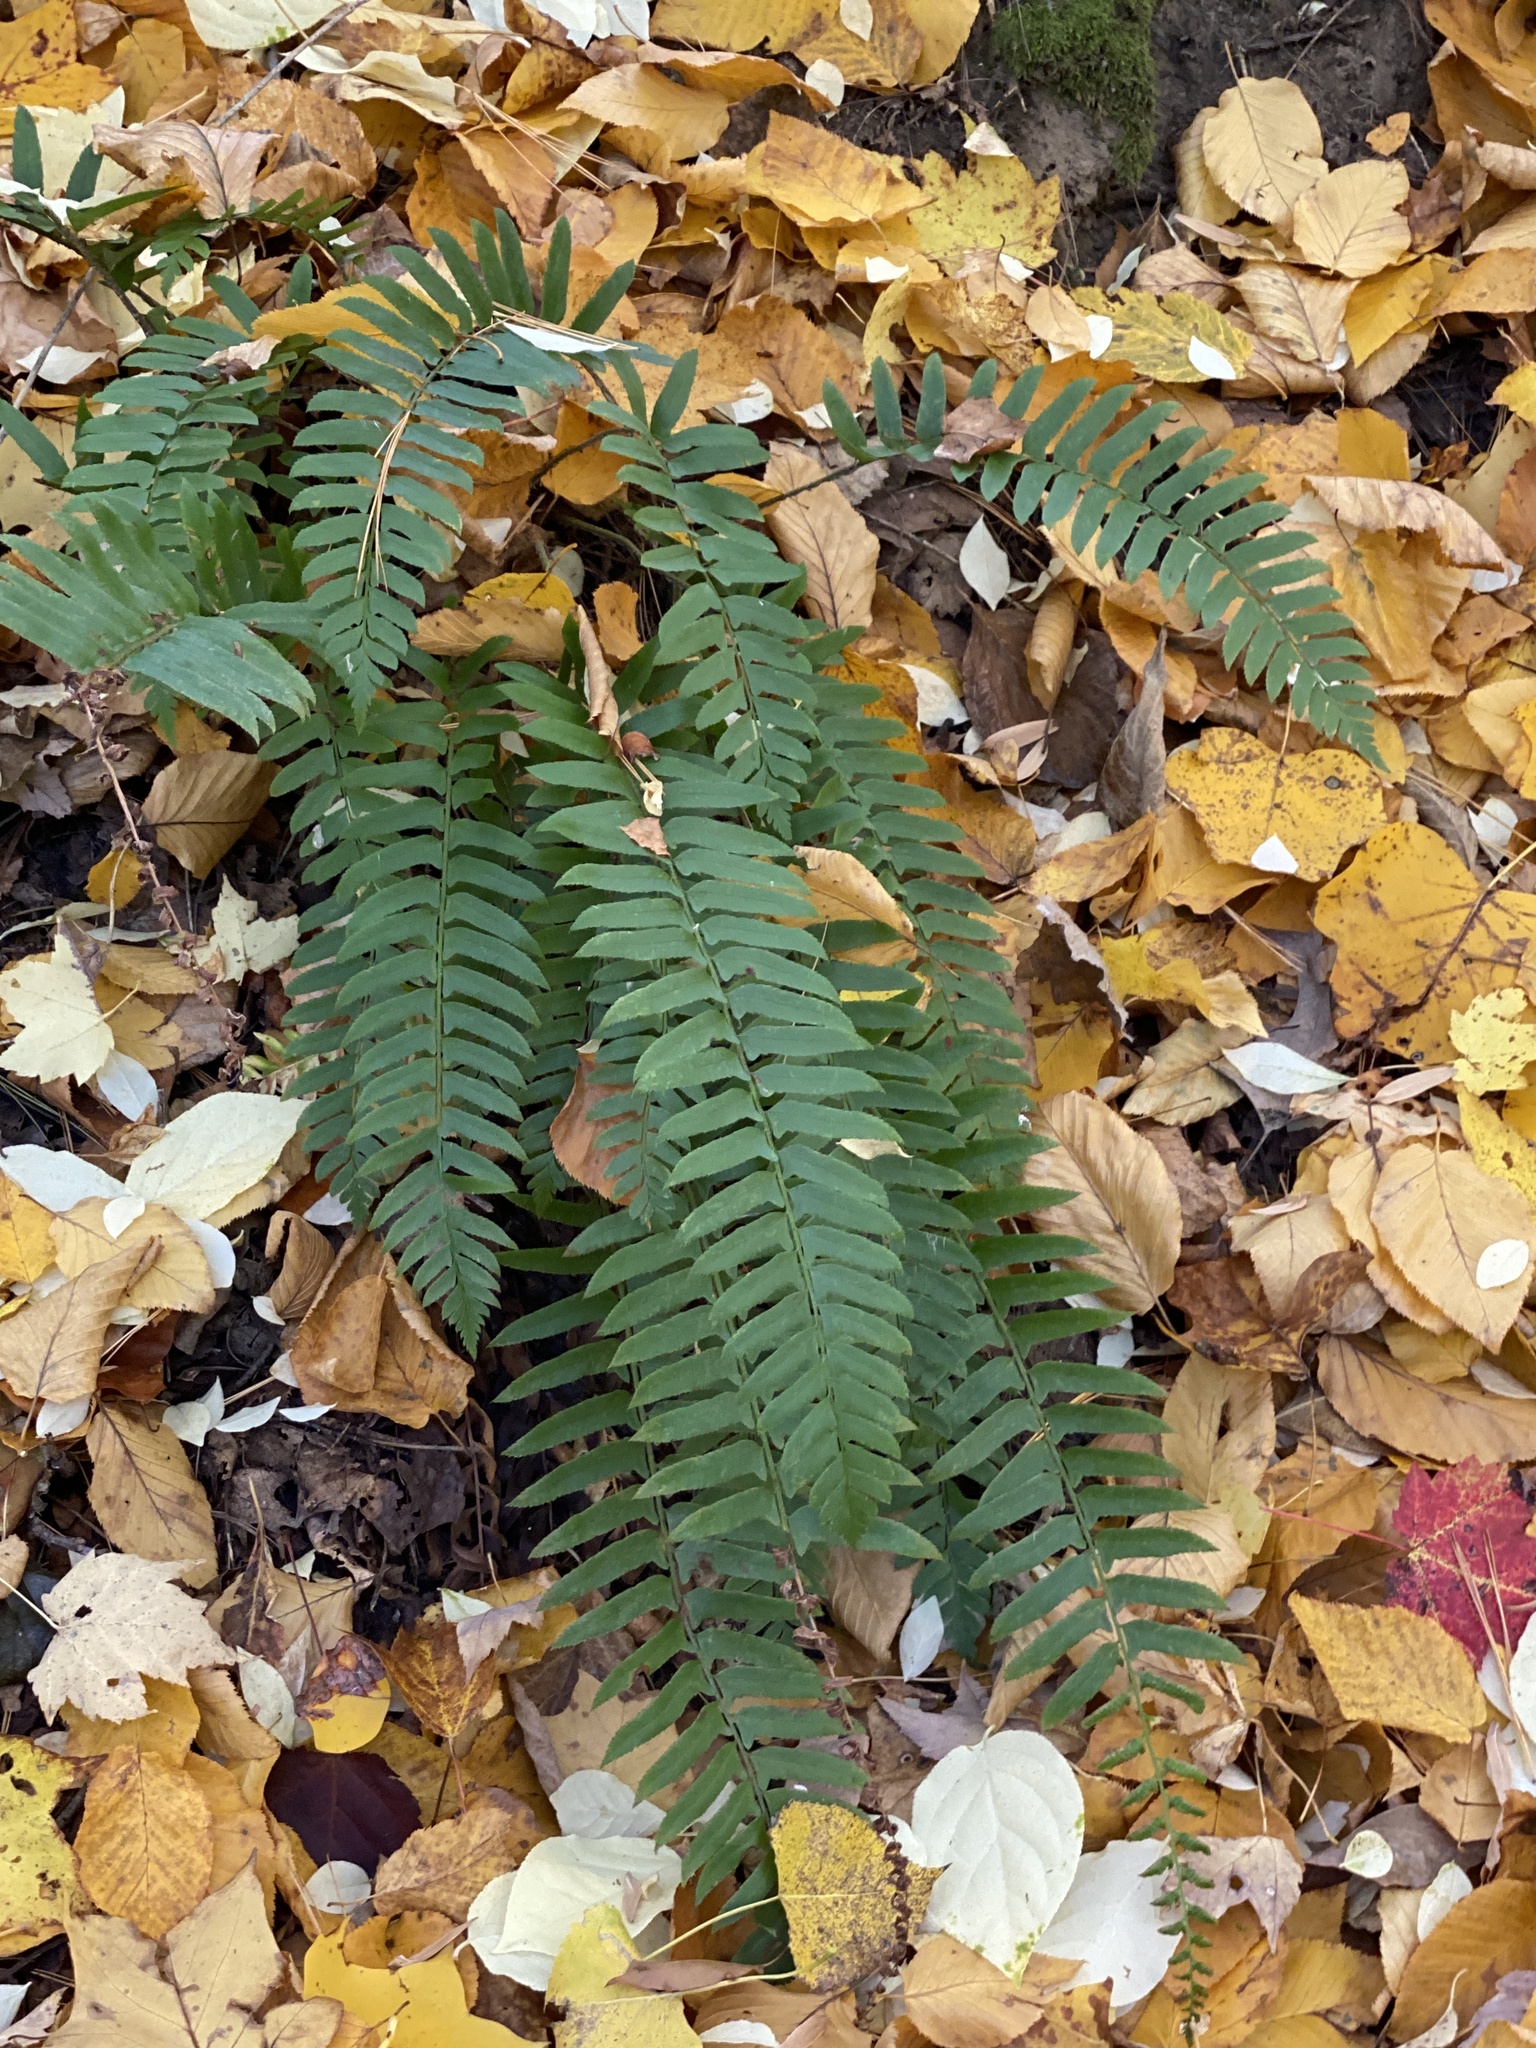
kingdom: Plantae
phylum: Tracheophyta
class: Polypodiopsida
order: Polypodiales
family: Dryopteridaceae
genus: Polystichum
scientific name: Polystichum acrostichoides
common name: Christmas fern
